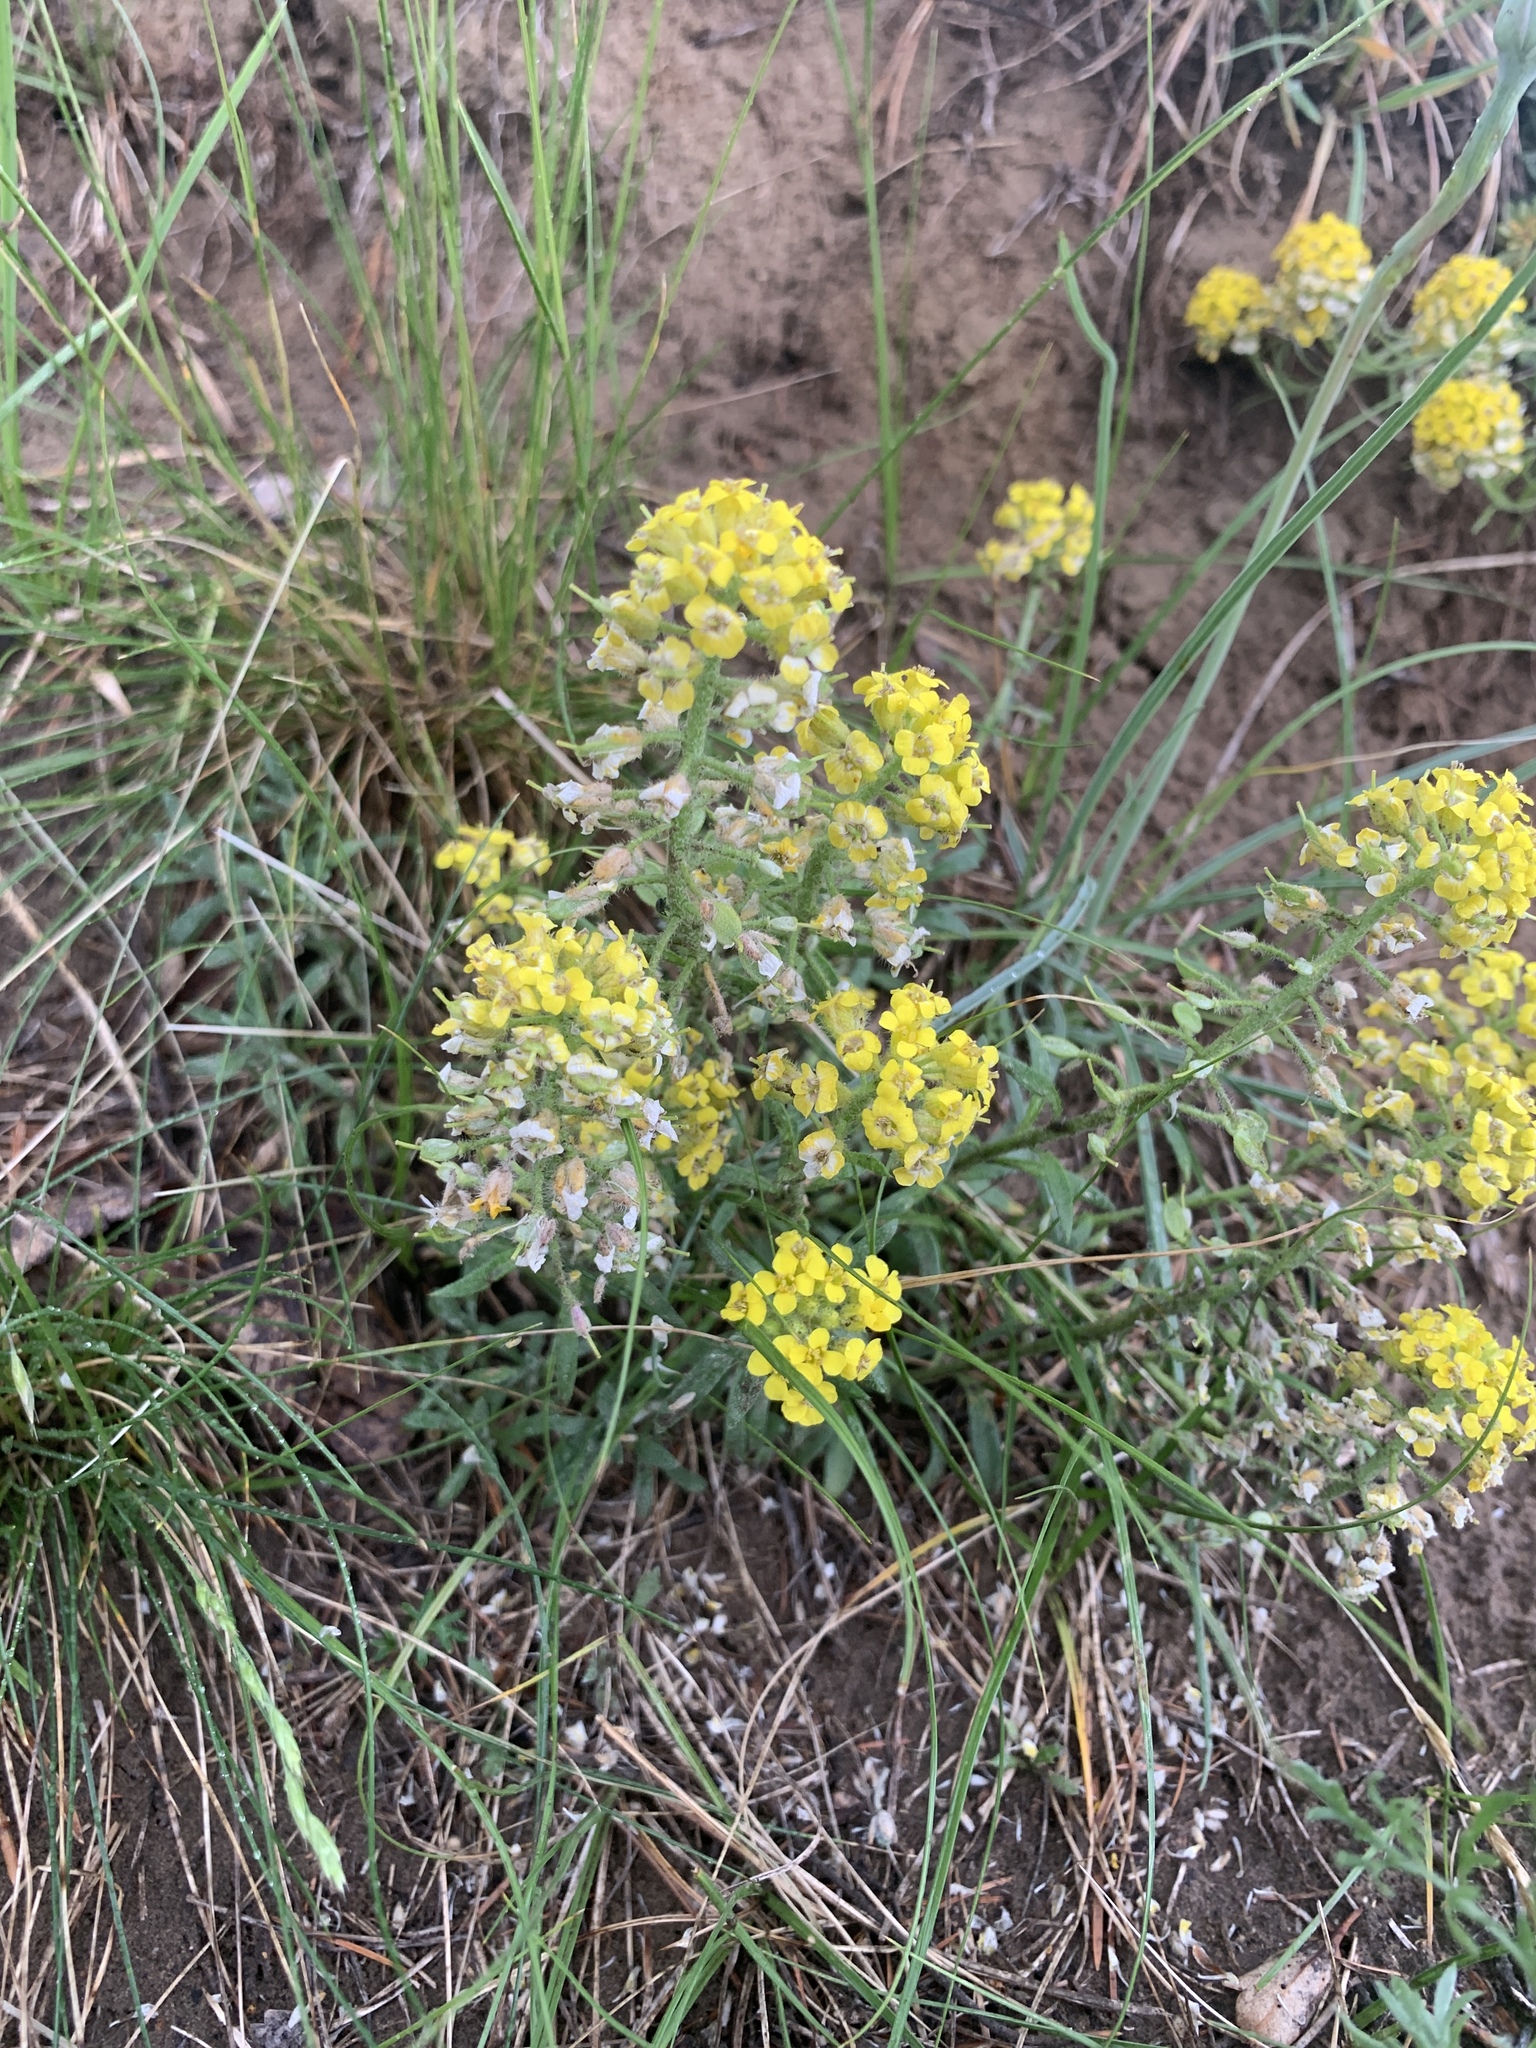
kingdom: Plantae
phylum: Tracheophyta
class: Magnoliopsida
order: Brassicales
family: Brassicaceae
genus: Alyssum
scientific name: Alyssum lenense
